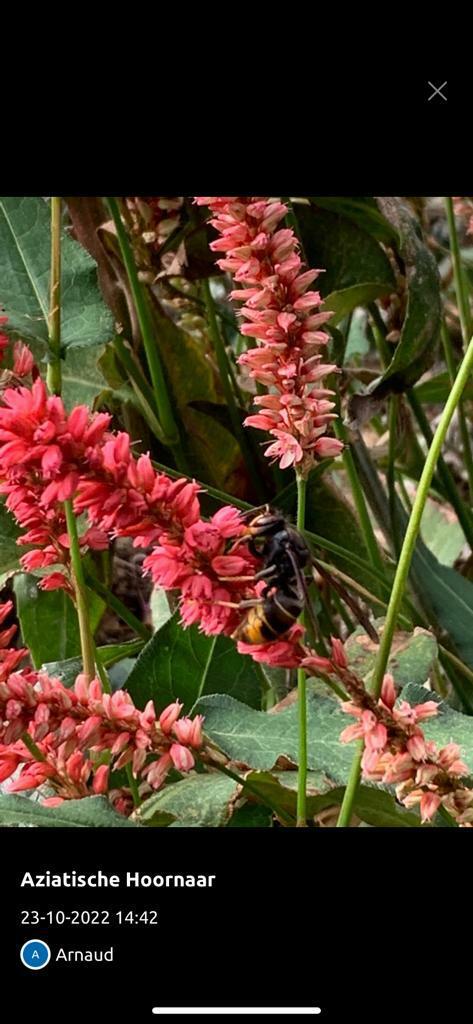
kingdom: Animalia
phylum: Arthropoda
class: Insecta
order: Hymenoptera
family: Vespidae
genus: Vespa
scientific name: Vespa velutina
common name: Asian hornet
